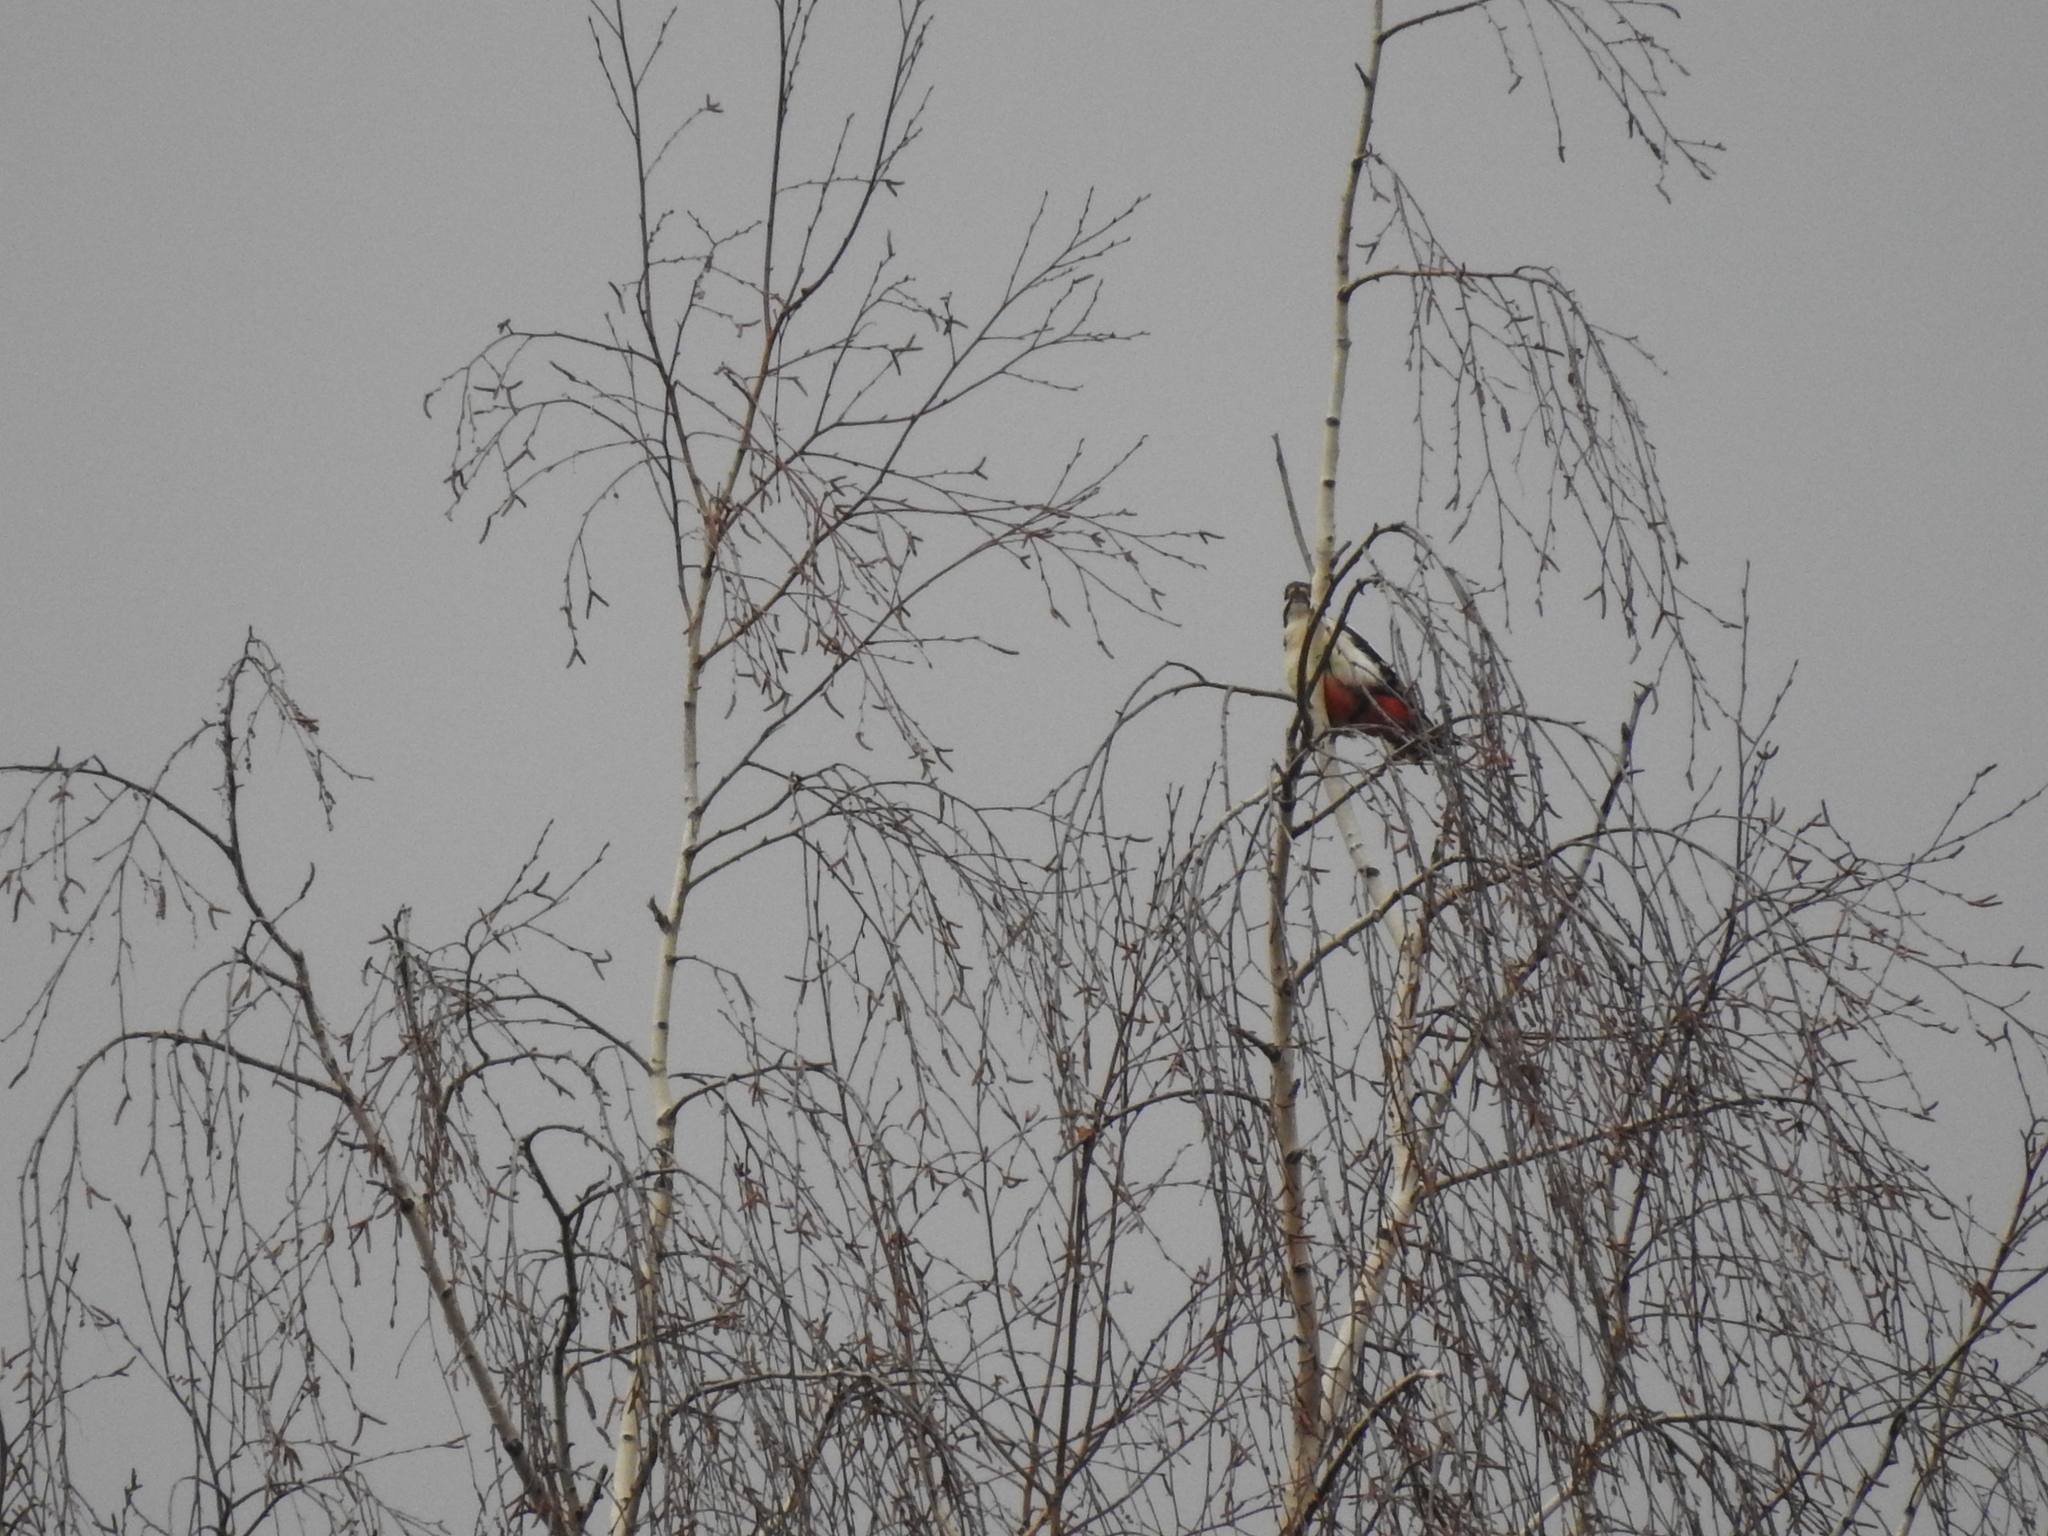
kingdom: Animalia
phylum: Chordata
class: Aves
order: Piciformes
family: Picidae
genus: Dendrocopos
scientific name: Dendrocopos major
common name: Great spotted woodpecker
